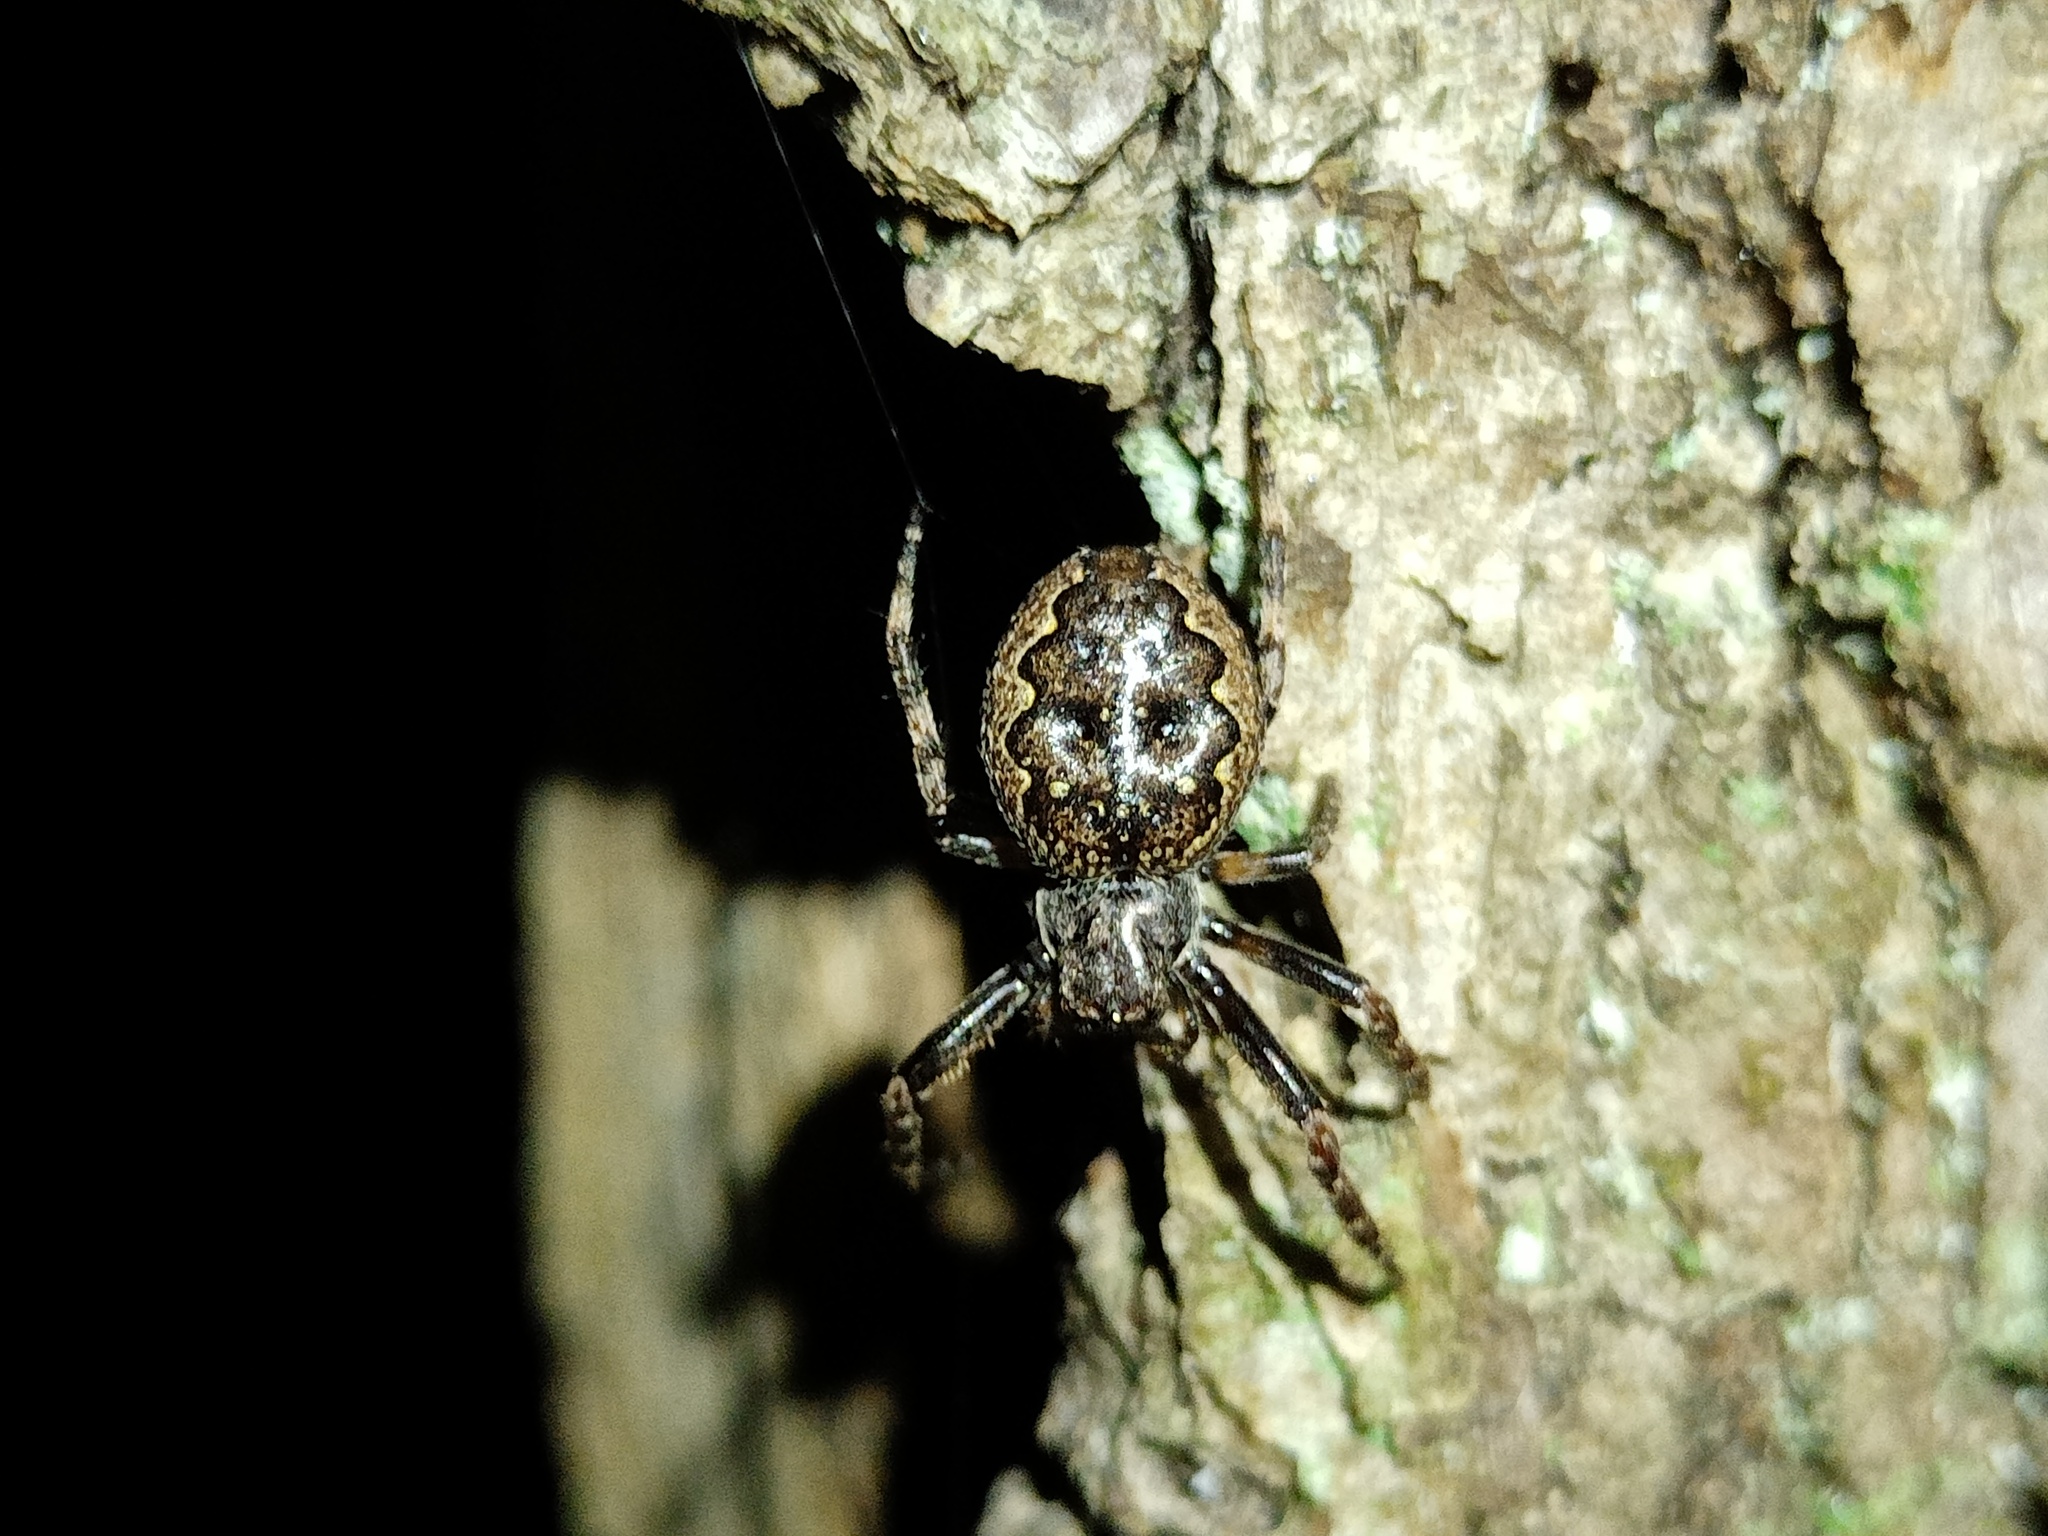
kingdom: Animalia
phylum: Arthropoda
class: Arachnida
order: Araneae
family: Araneidae
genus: Nuctenea
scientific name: Nuctenea umbratica
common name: Toad spider
